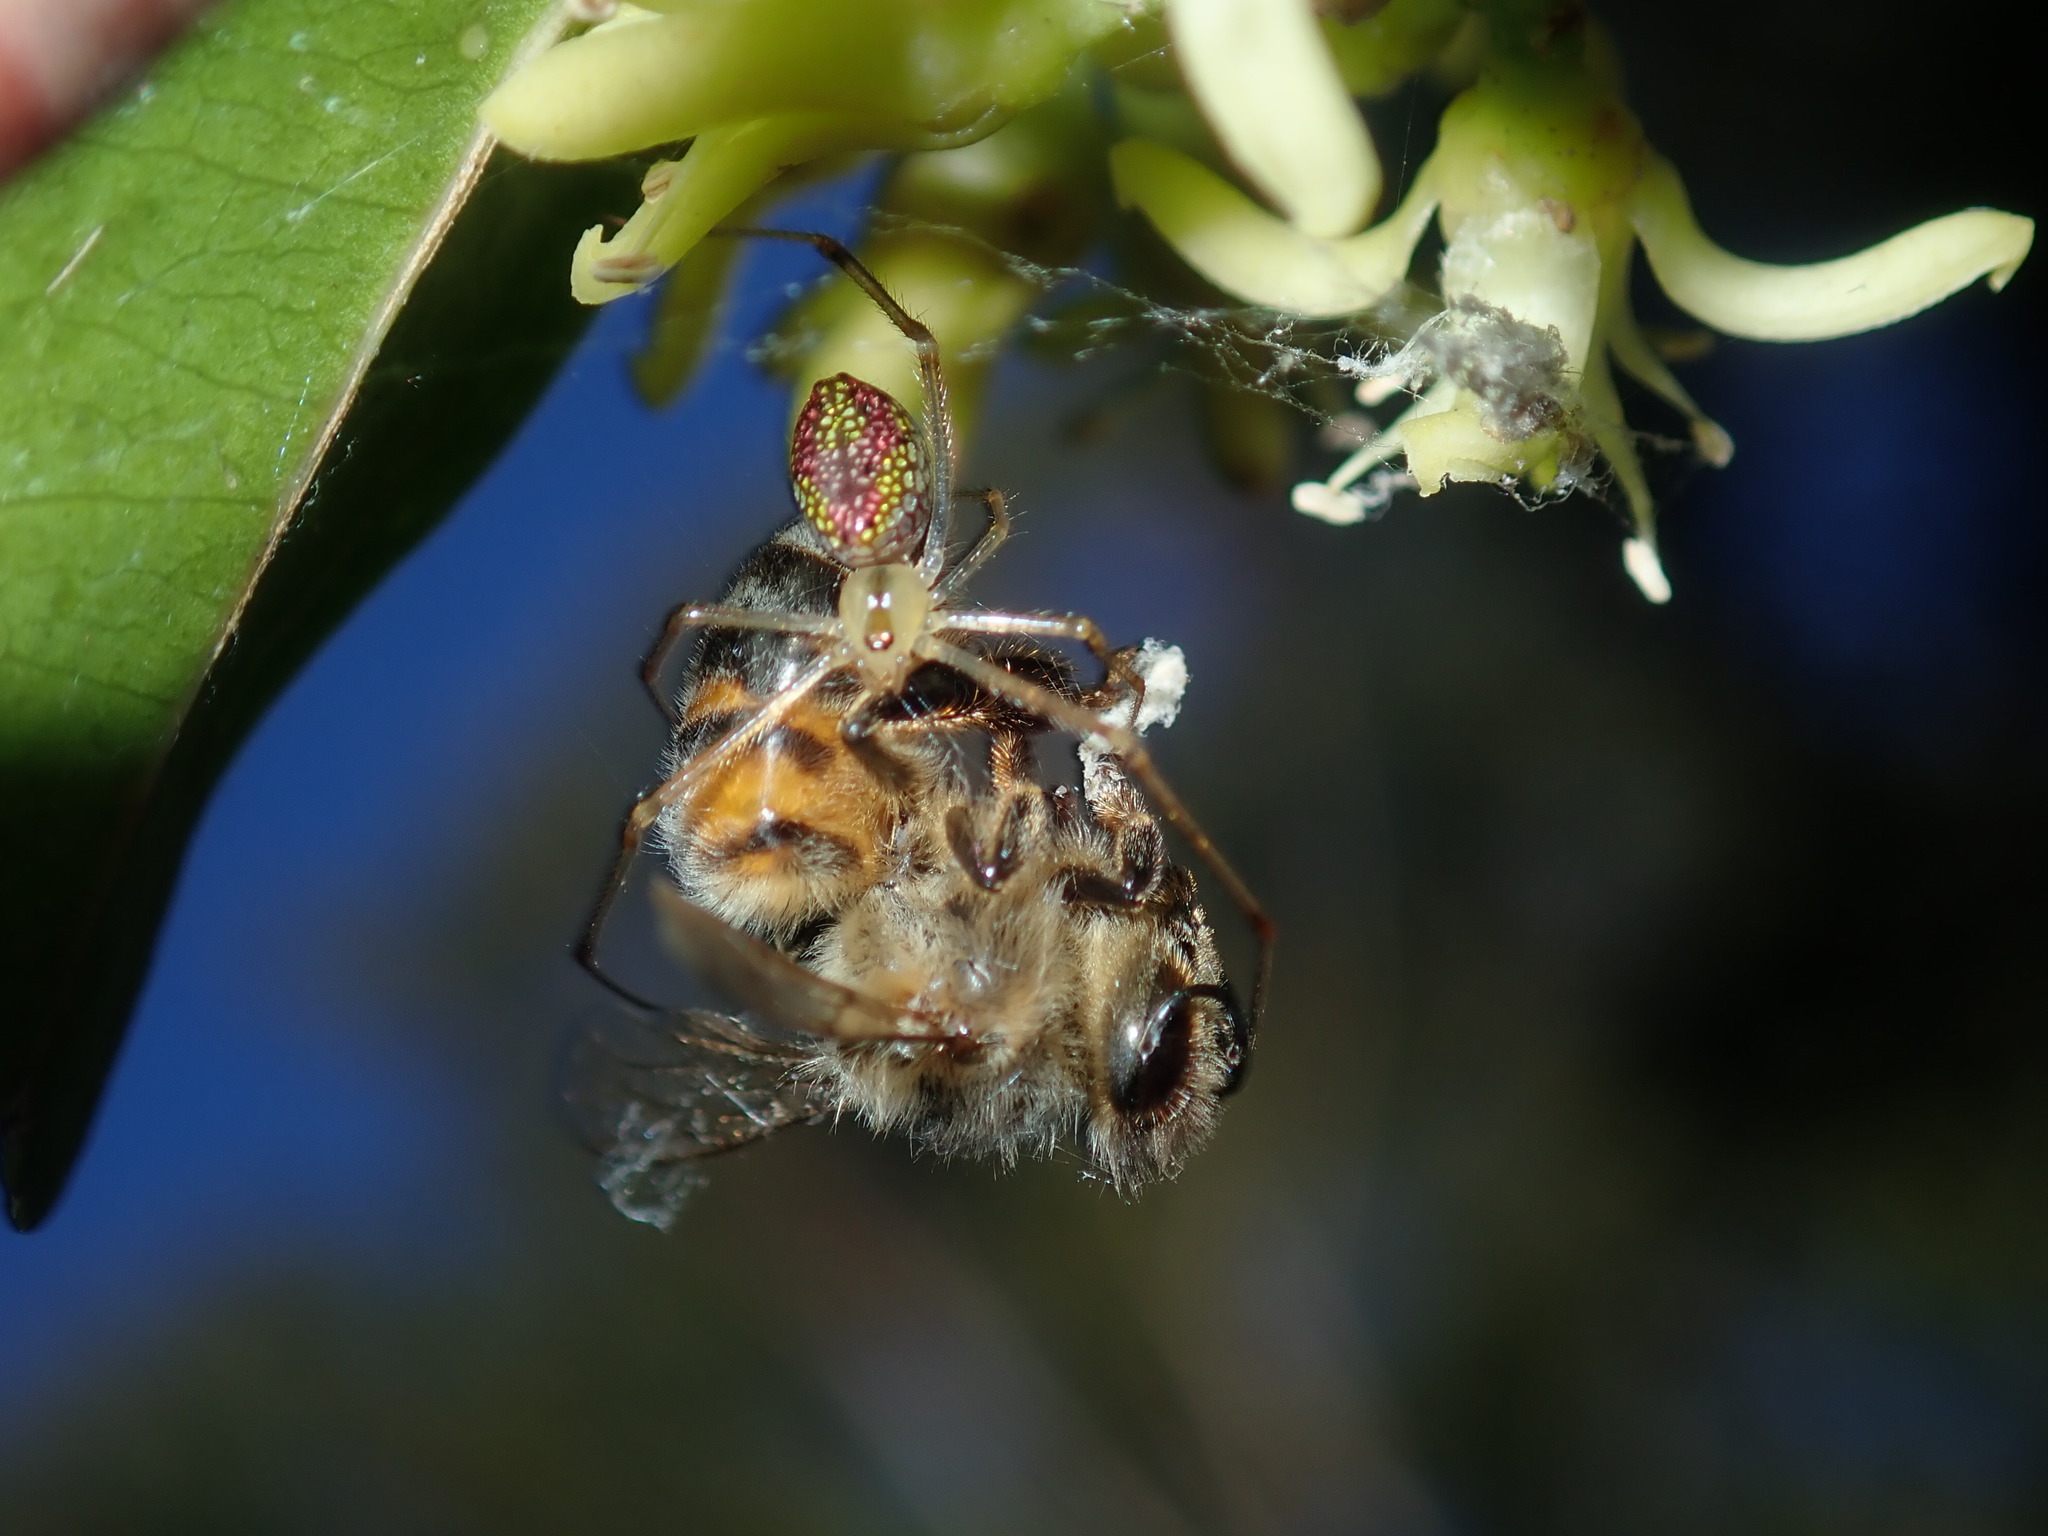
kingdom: Animalia
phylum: Arthropoda
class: Arachnida
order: Araneae
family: Theridiidae
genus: Thwaitesia
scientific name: Thwaitesia nigronodosa
